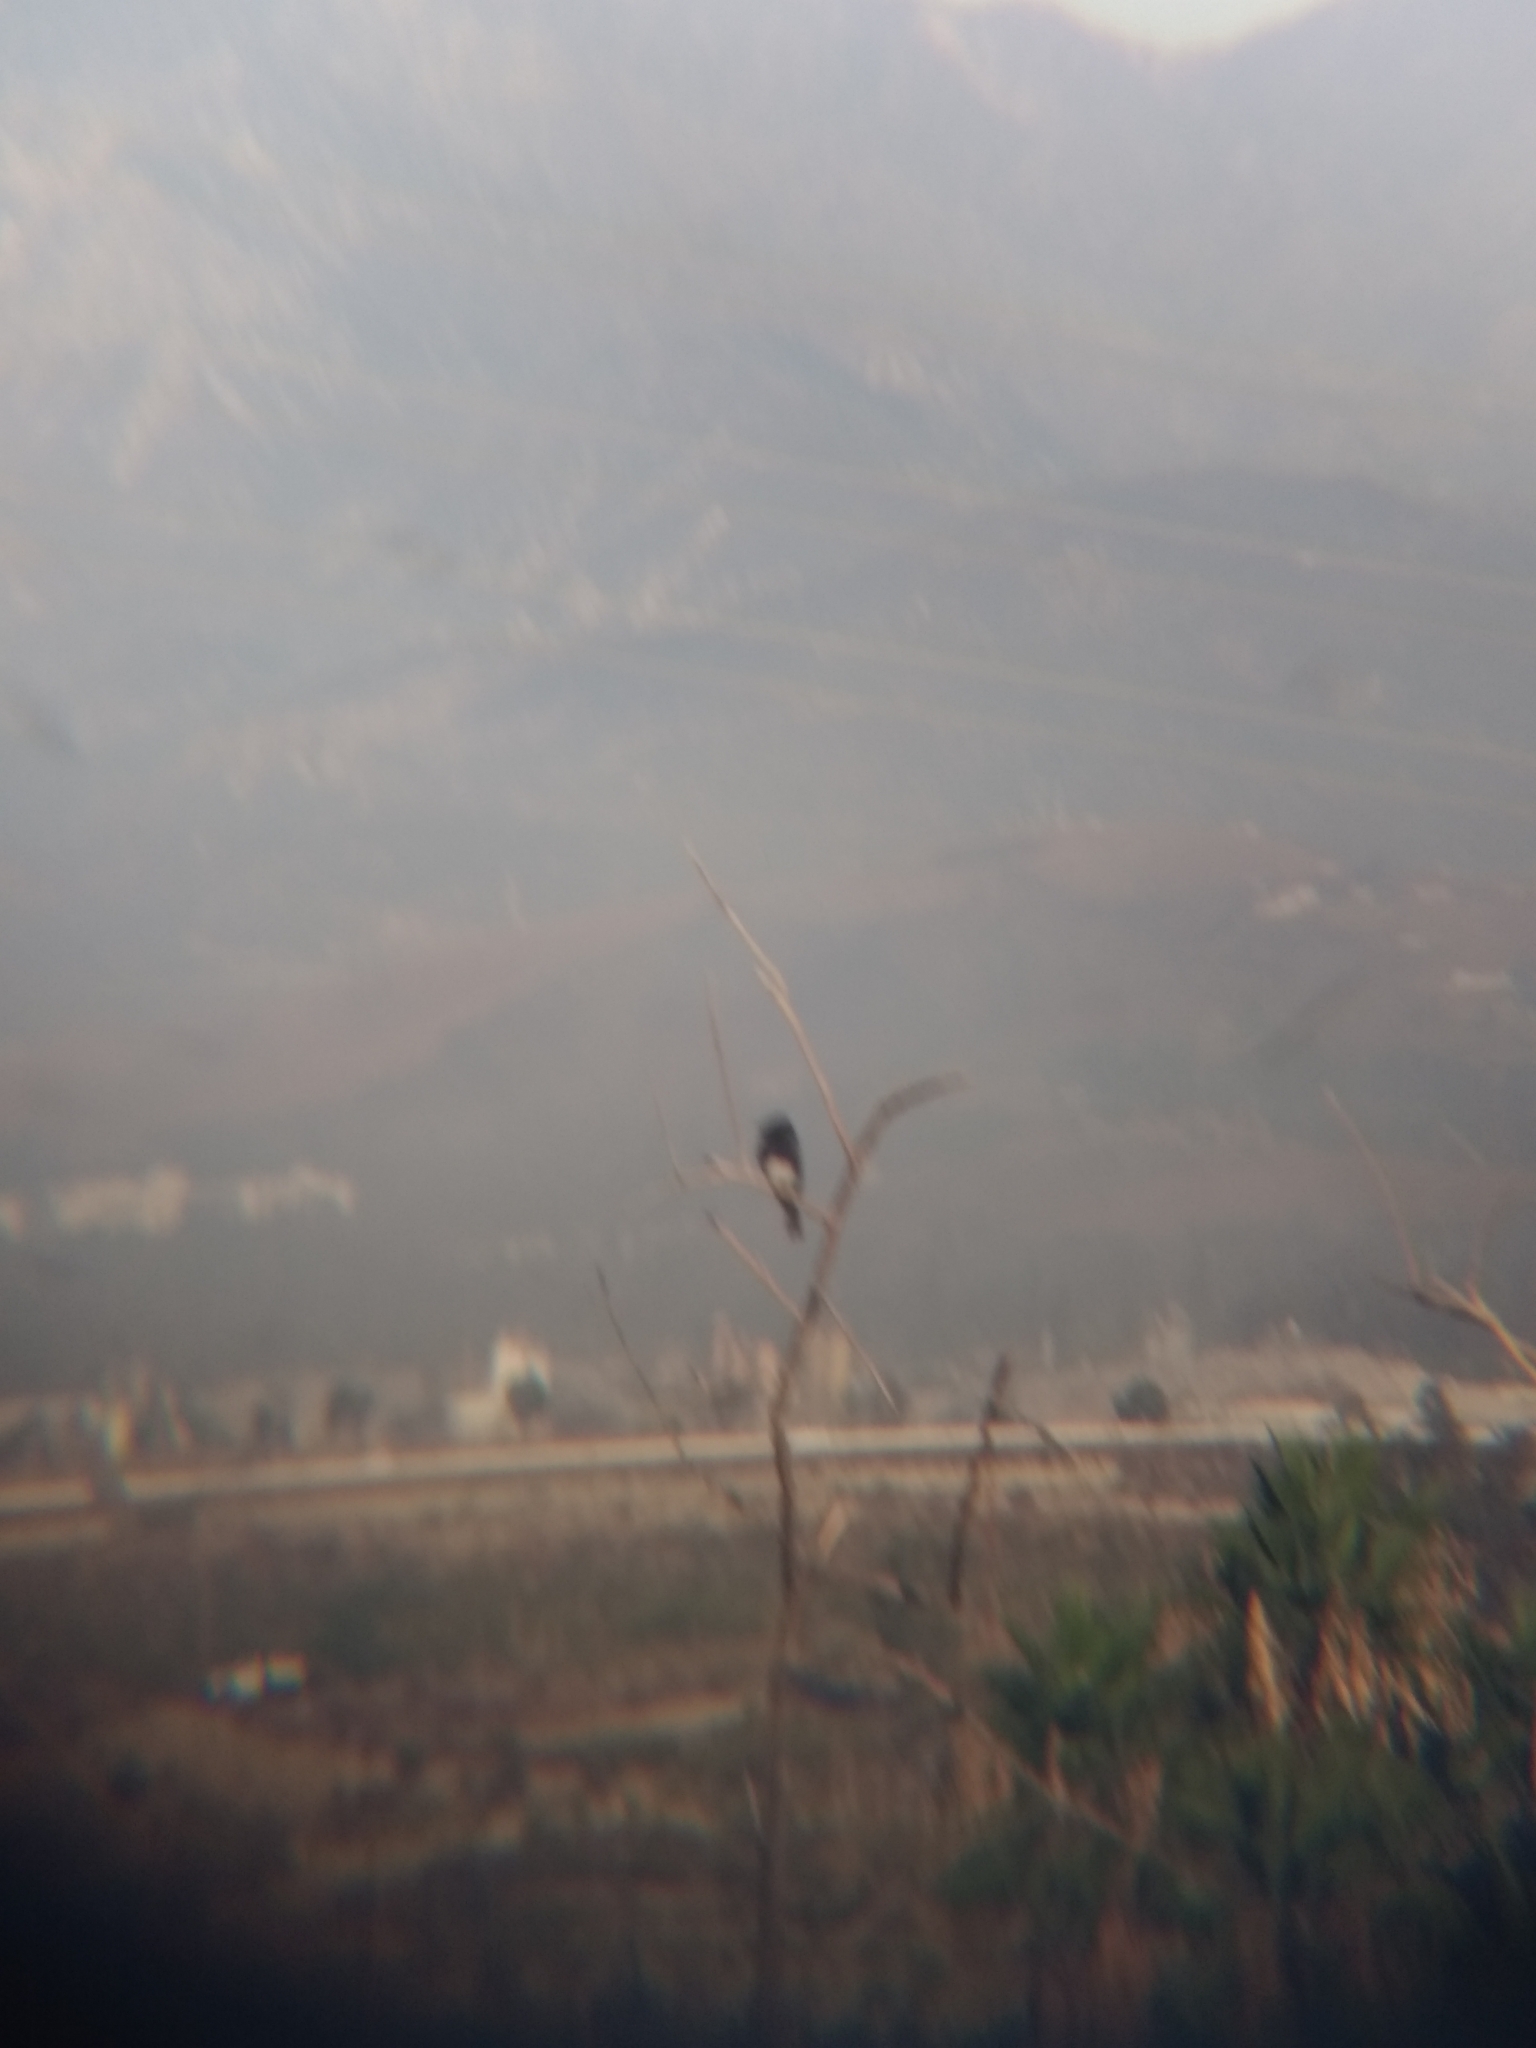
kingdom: Animalia
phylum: Chordata
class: Aves
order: Passeriformes
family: Tyrannidae
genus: Sayornis
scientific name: Sayornis nigricans
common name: Black phoebe
